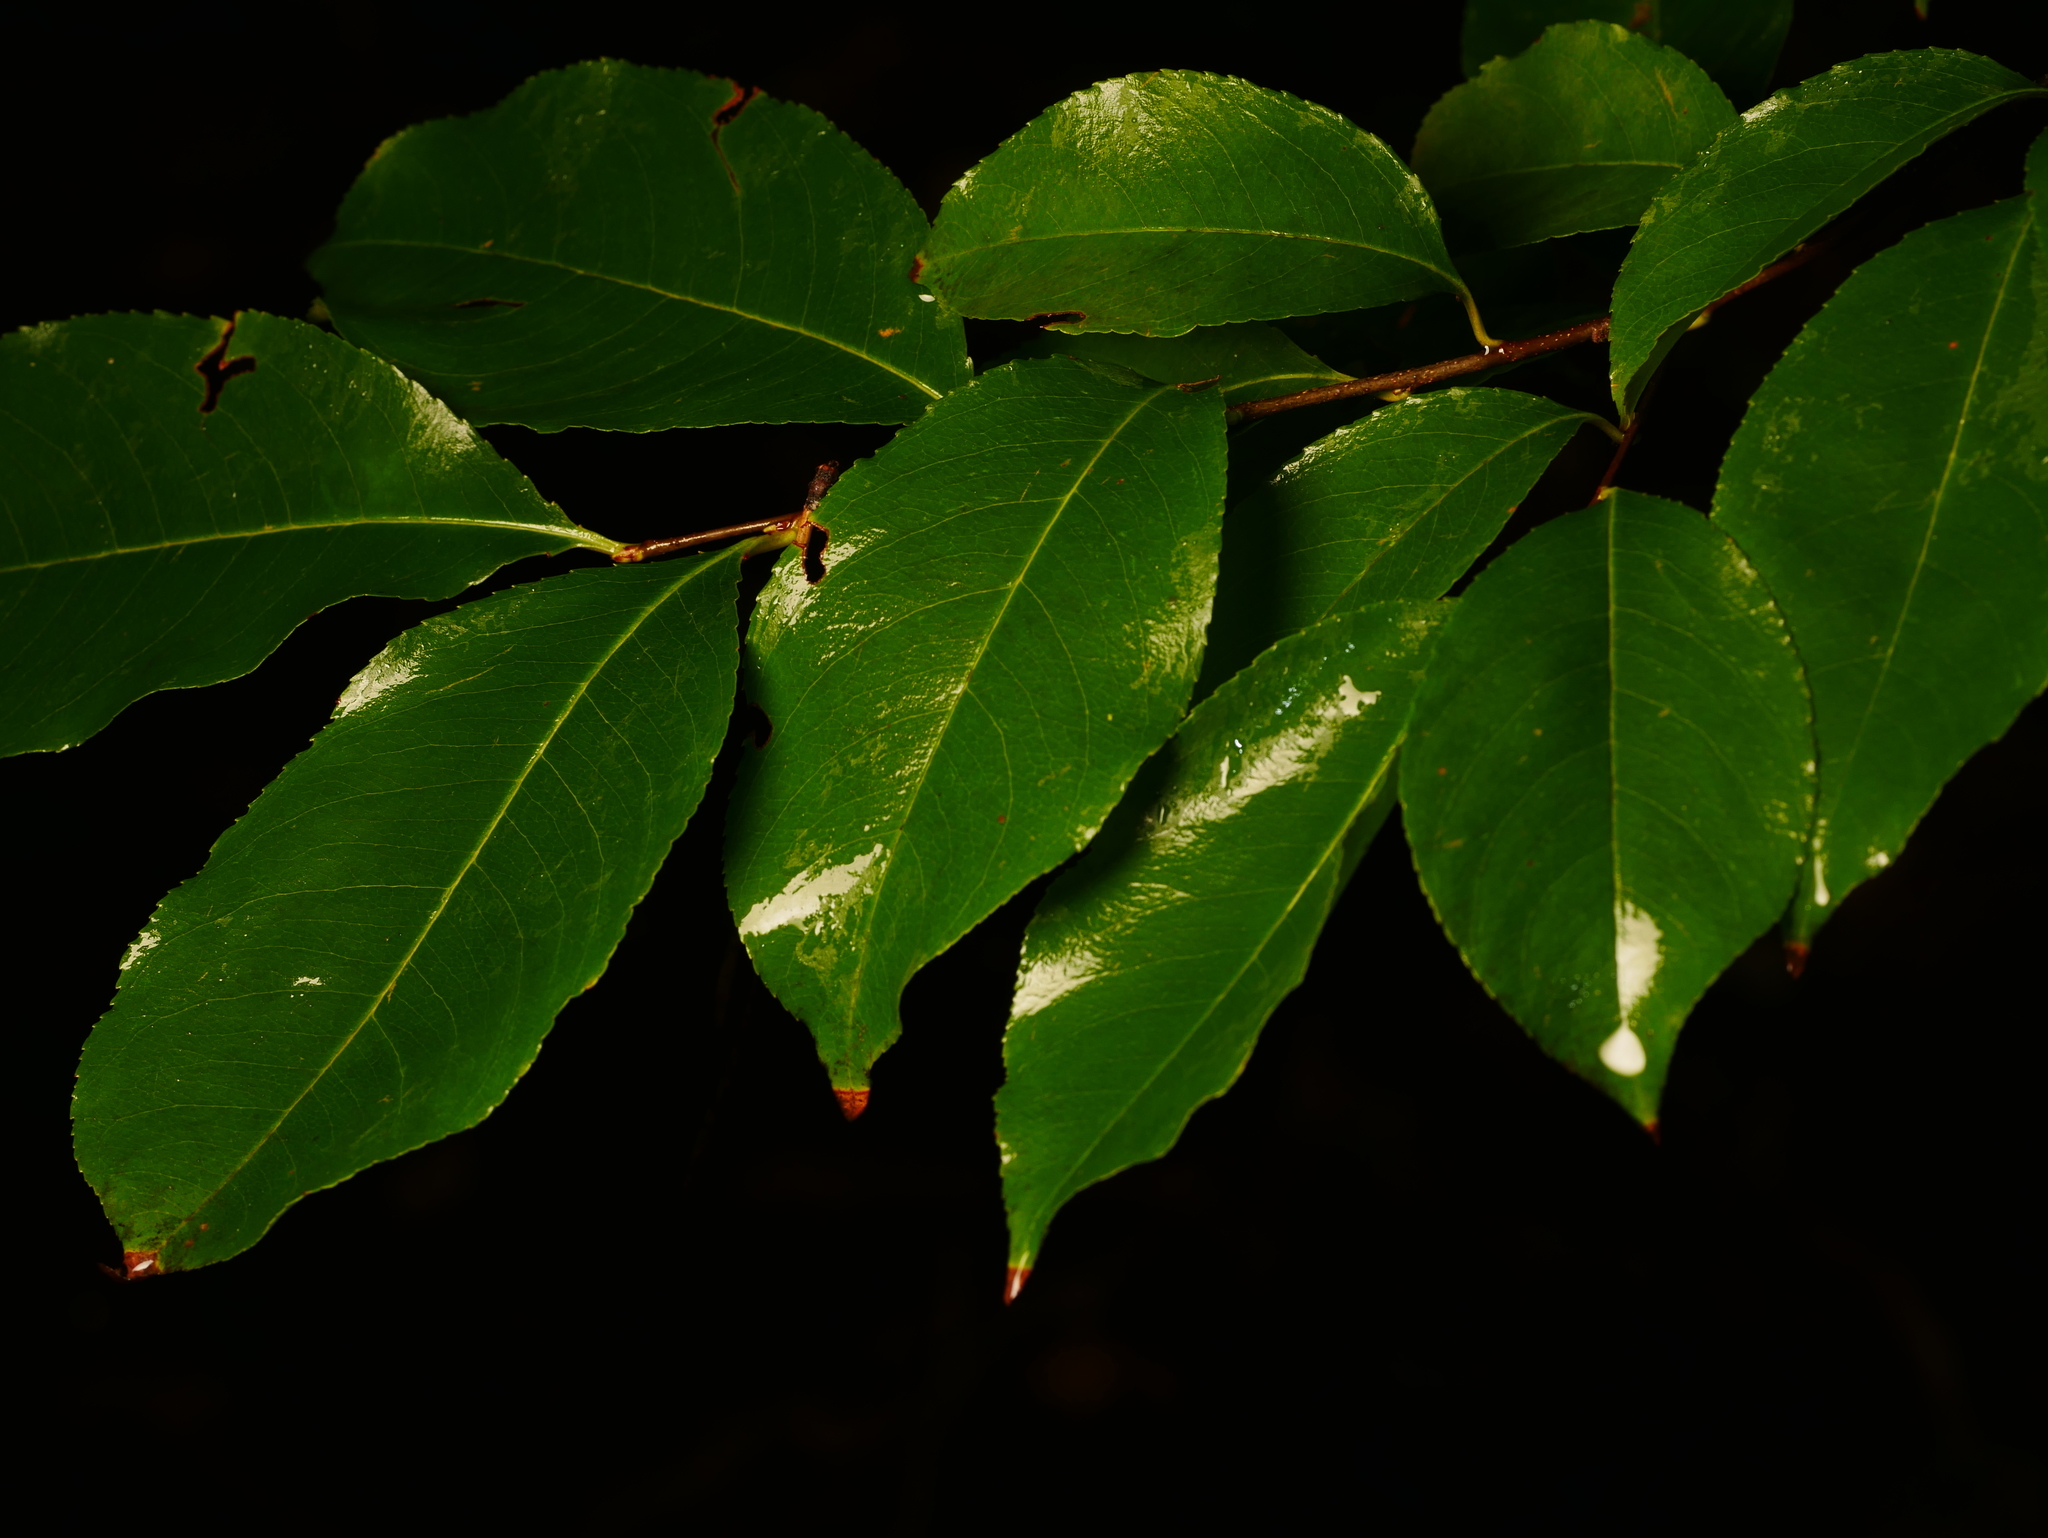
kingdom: Plantae
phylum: Tracheophyta
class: Magnoliopsida
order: Rosales
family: Rosaceae
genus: Prunus
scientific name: Prunus serotina
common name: Black cherry
